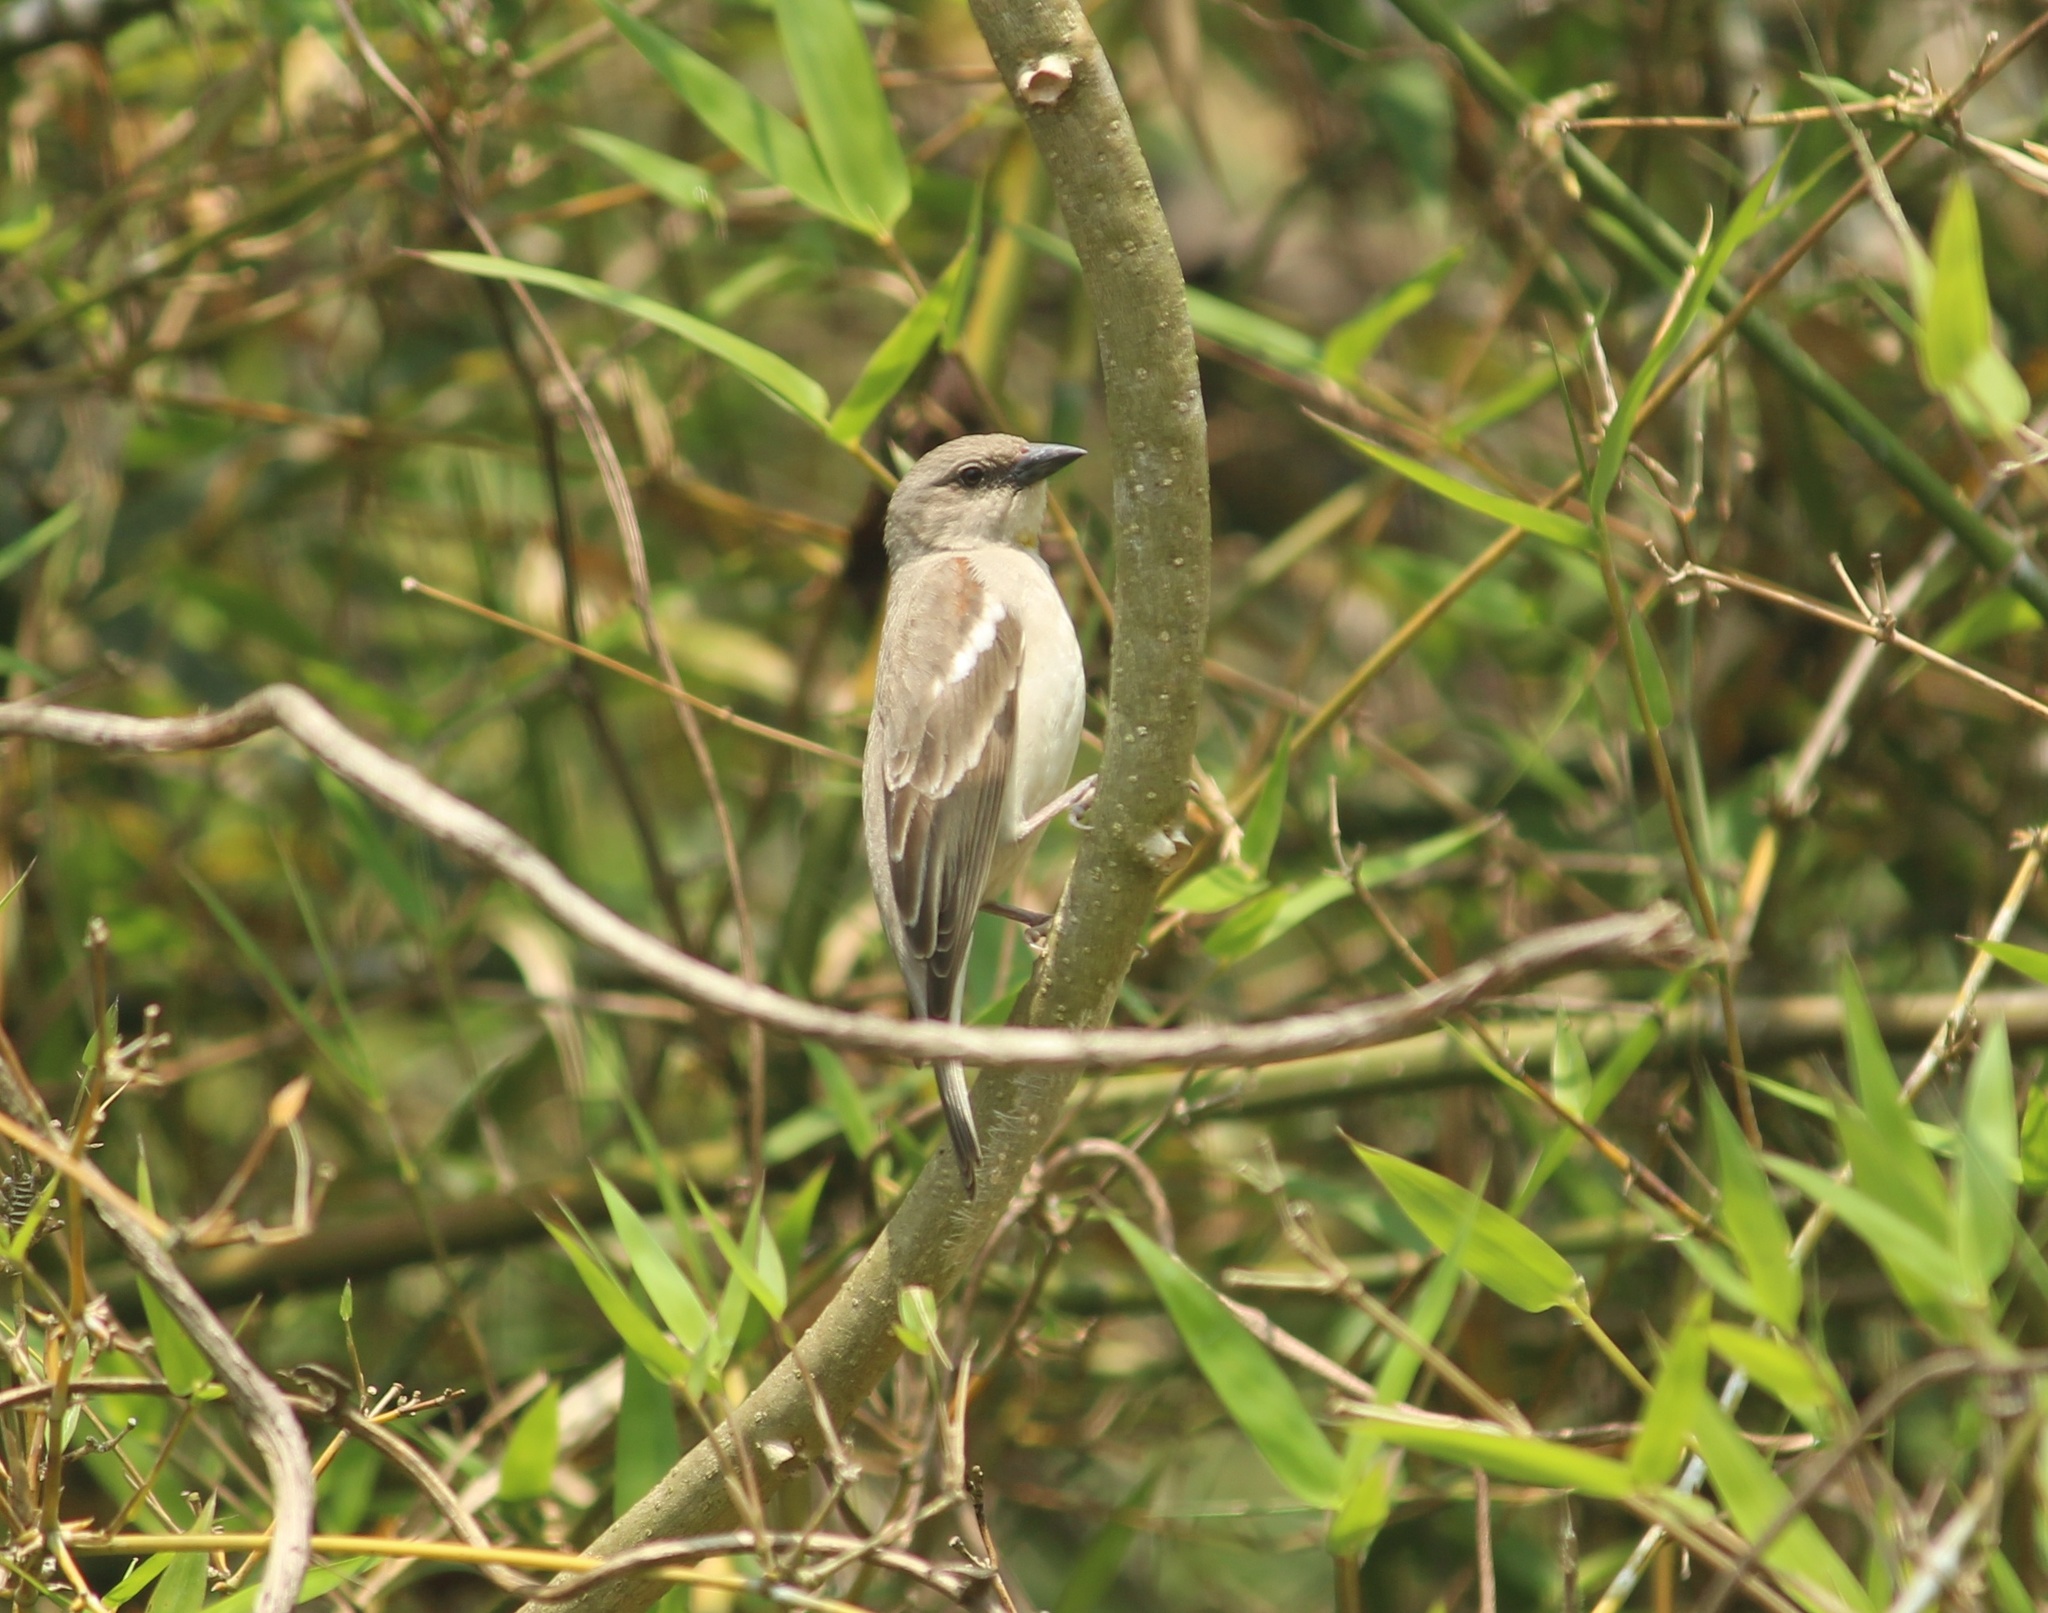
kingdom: Animalia
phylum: Chordata
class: Aves
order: Passeriformes
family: Passeridae
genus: Gymnoris
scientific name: Gymnoris xanthocollis
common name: Yellow-throated sparrow
